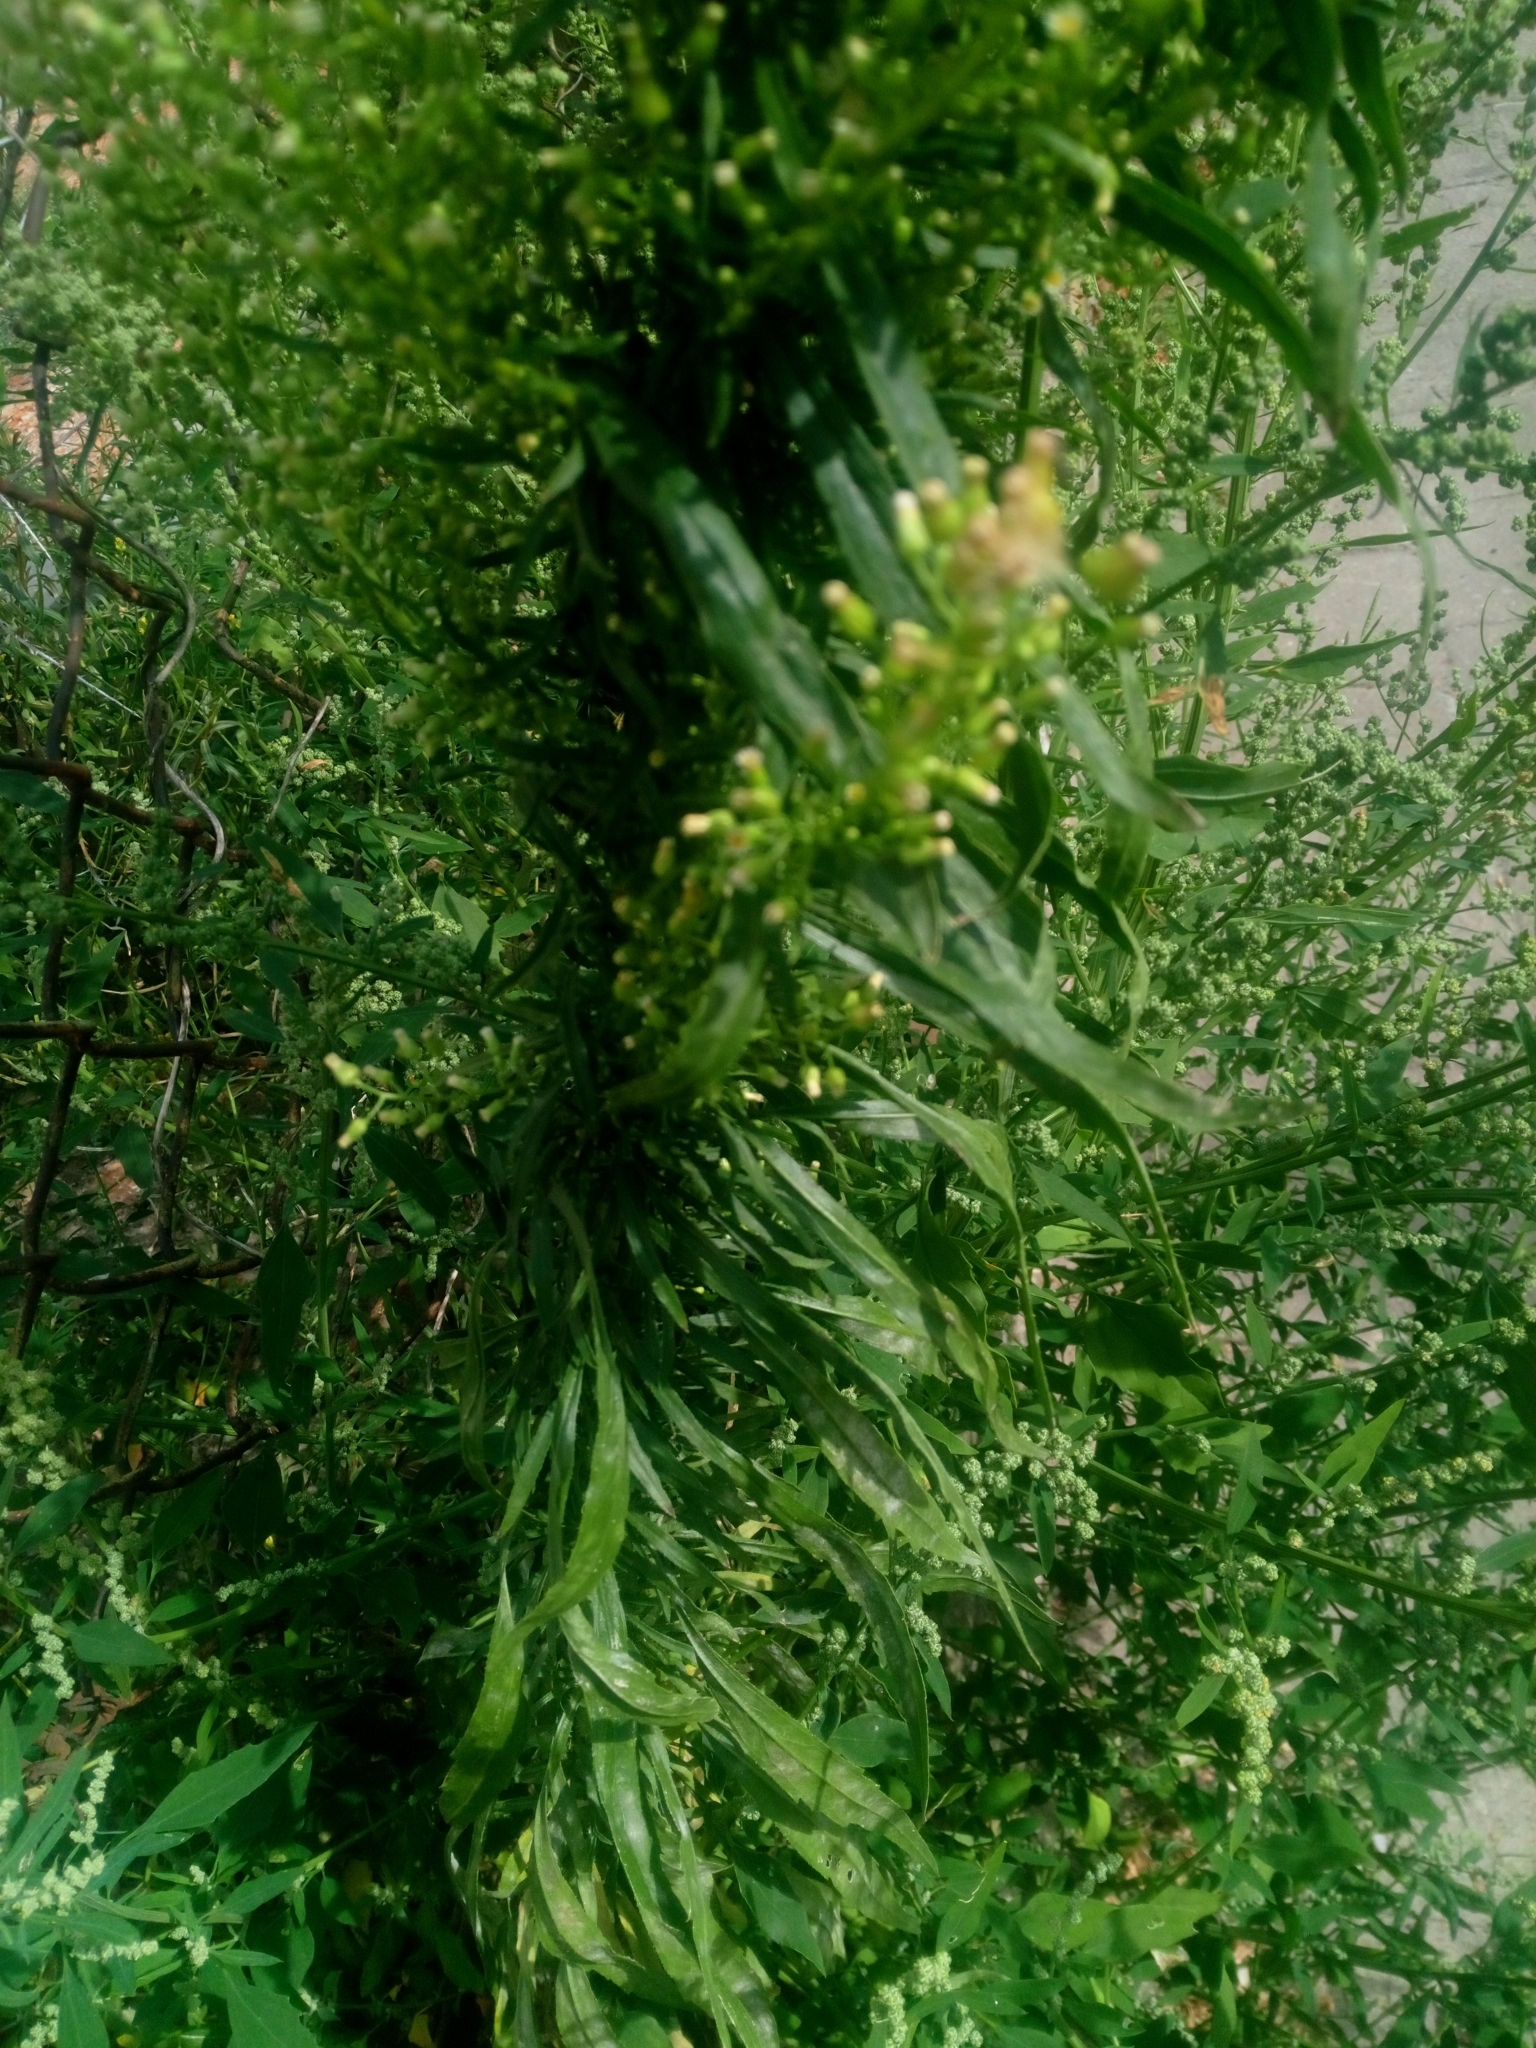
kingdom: Plantae
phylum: Tracheophyta
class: Magnoliopsida
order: Asterales
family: Asteraceae
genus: Erigeron
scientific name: Erigeron canadensis
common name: Canadian fleabane
